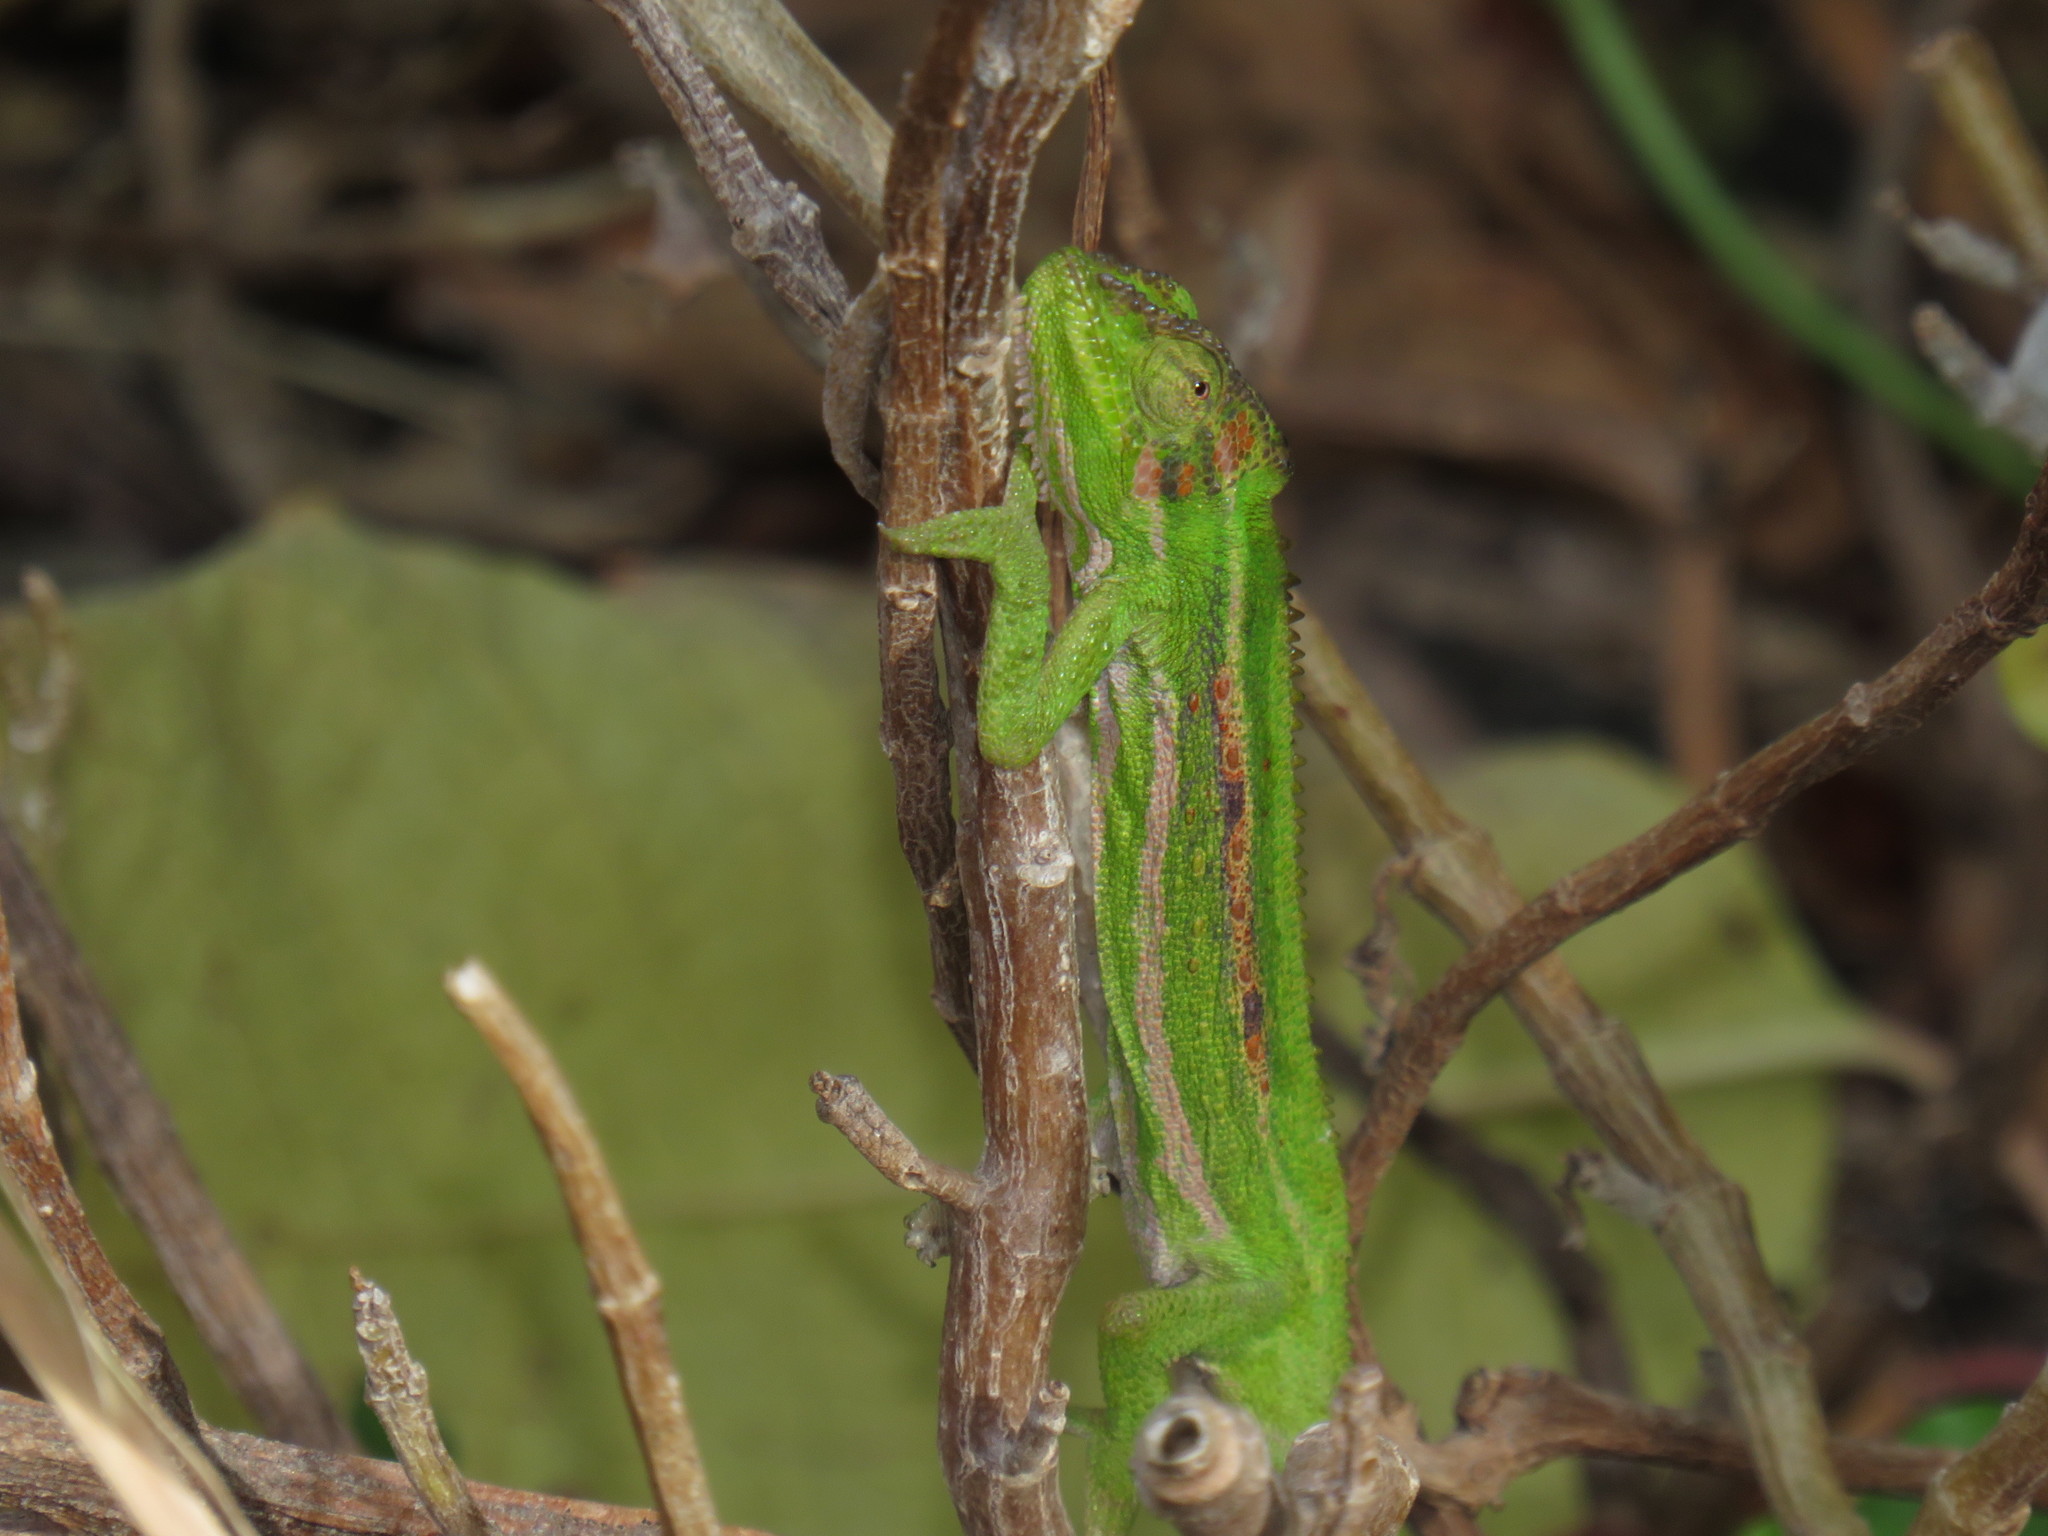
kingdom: Animalia
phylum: Chordata
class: Squamata
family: Chamaeleonidae
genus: Bradypodion
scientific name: Bradypodion pumilum
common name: Cape dwarf chameleon
